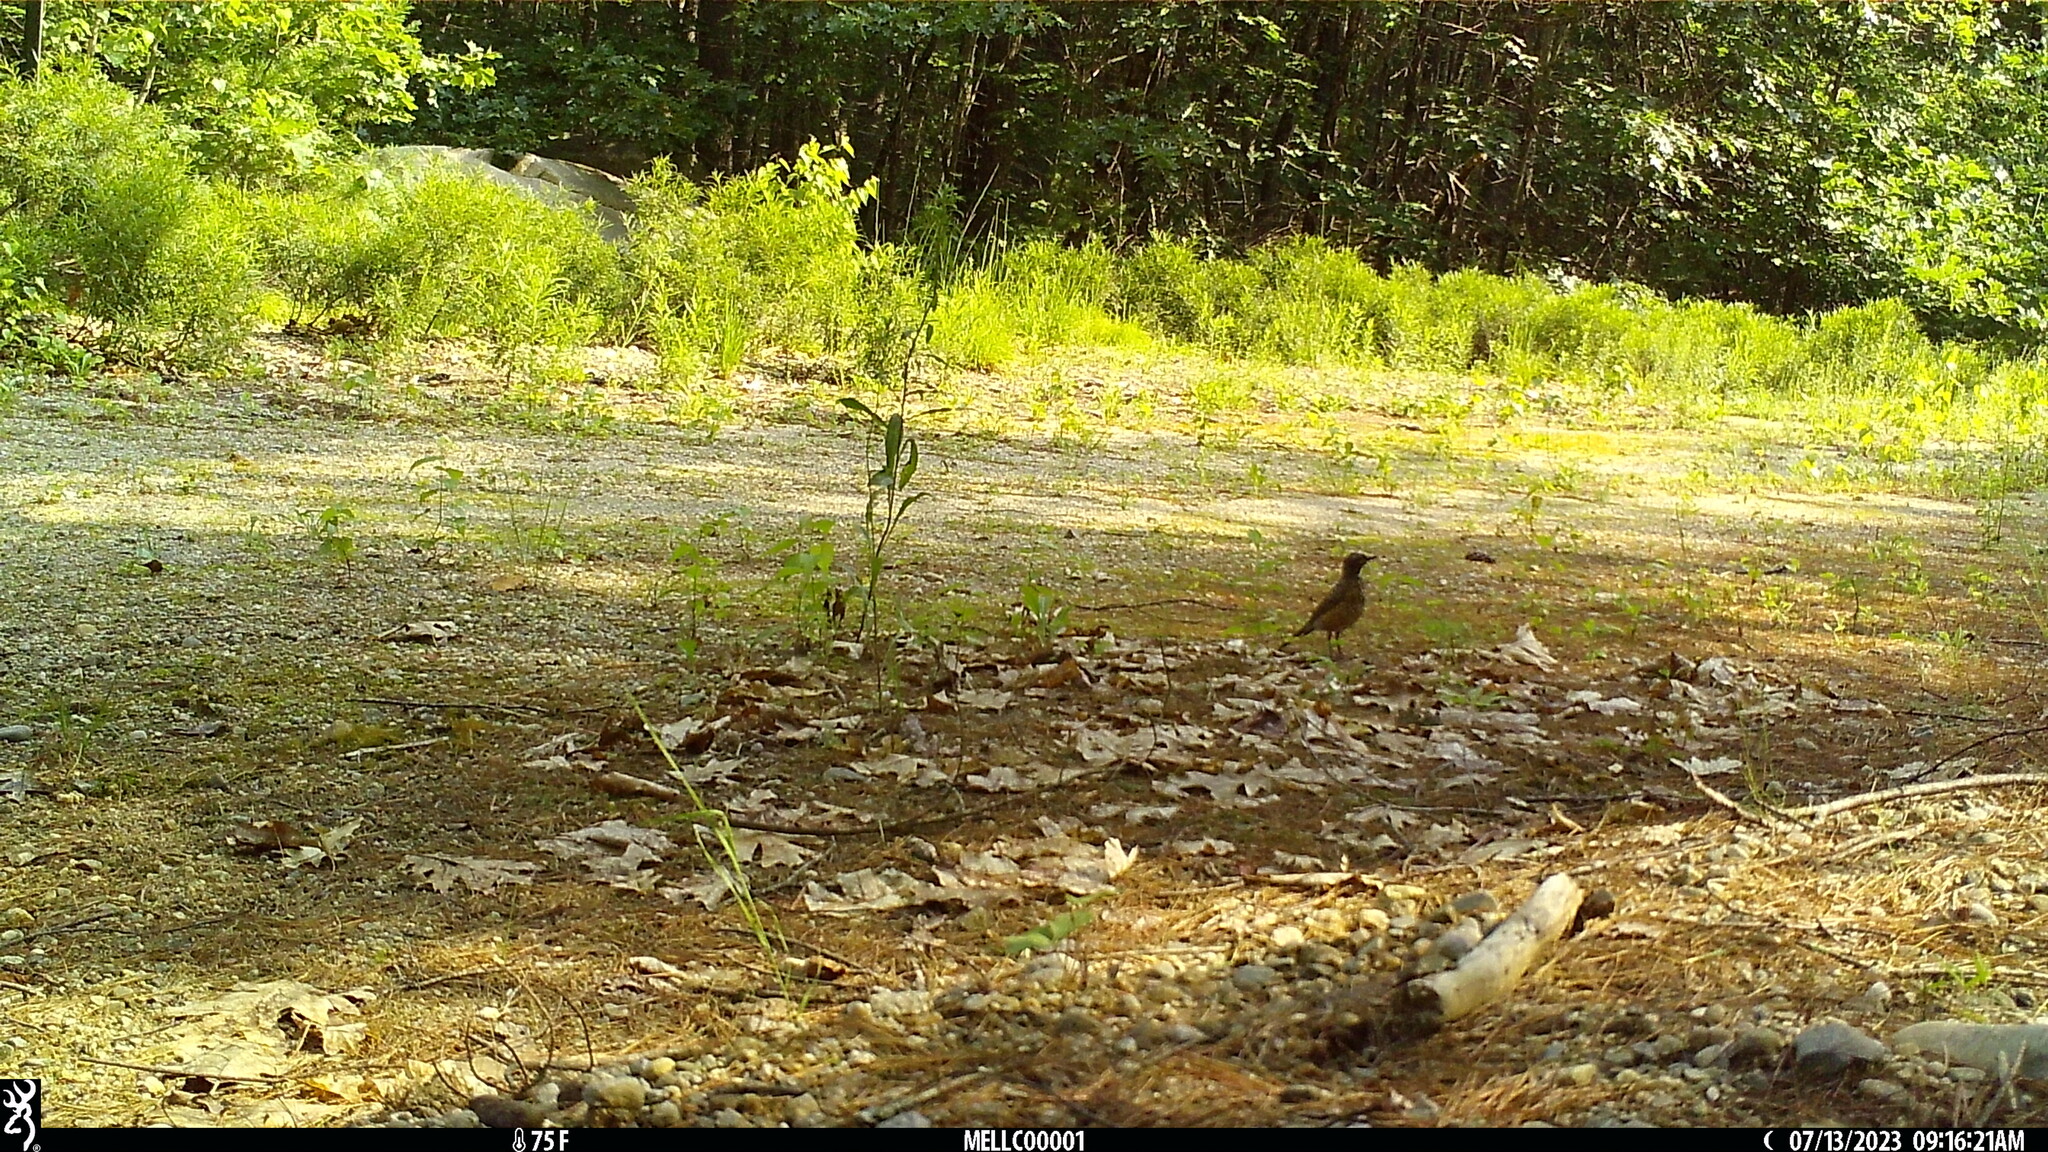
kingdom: Animalia
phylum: Chordata
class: Aves
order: Passeriformes
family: Turdidae
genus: Turdus
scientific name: Turdus migratorius
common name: American robin
